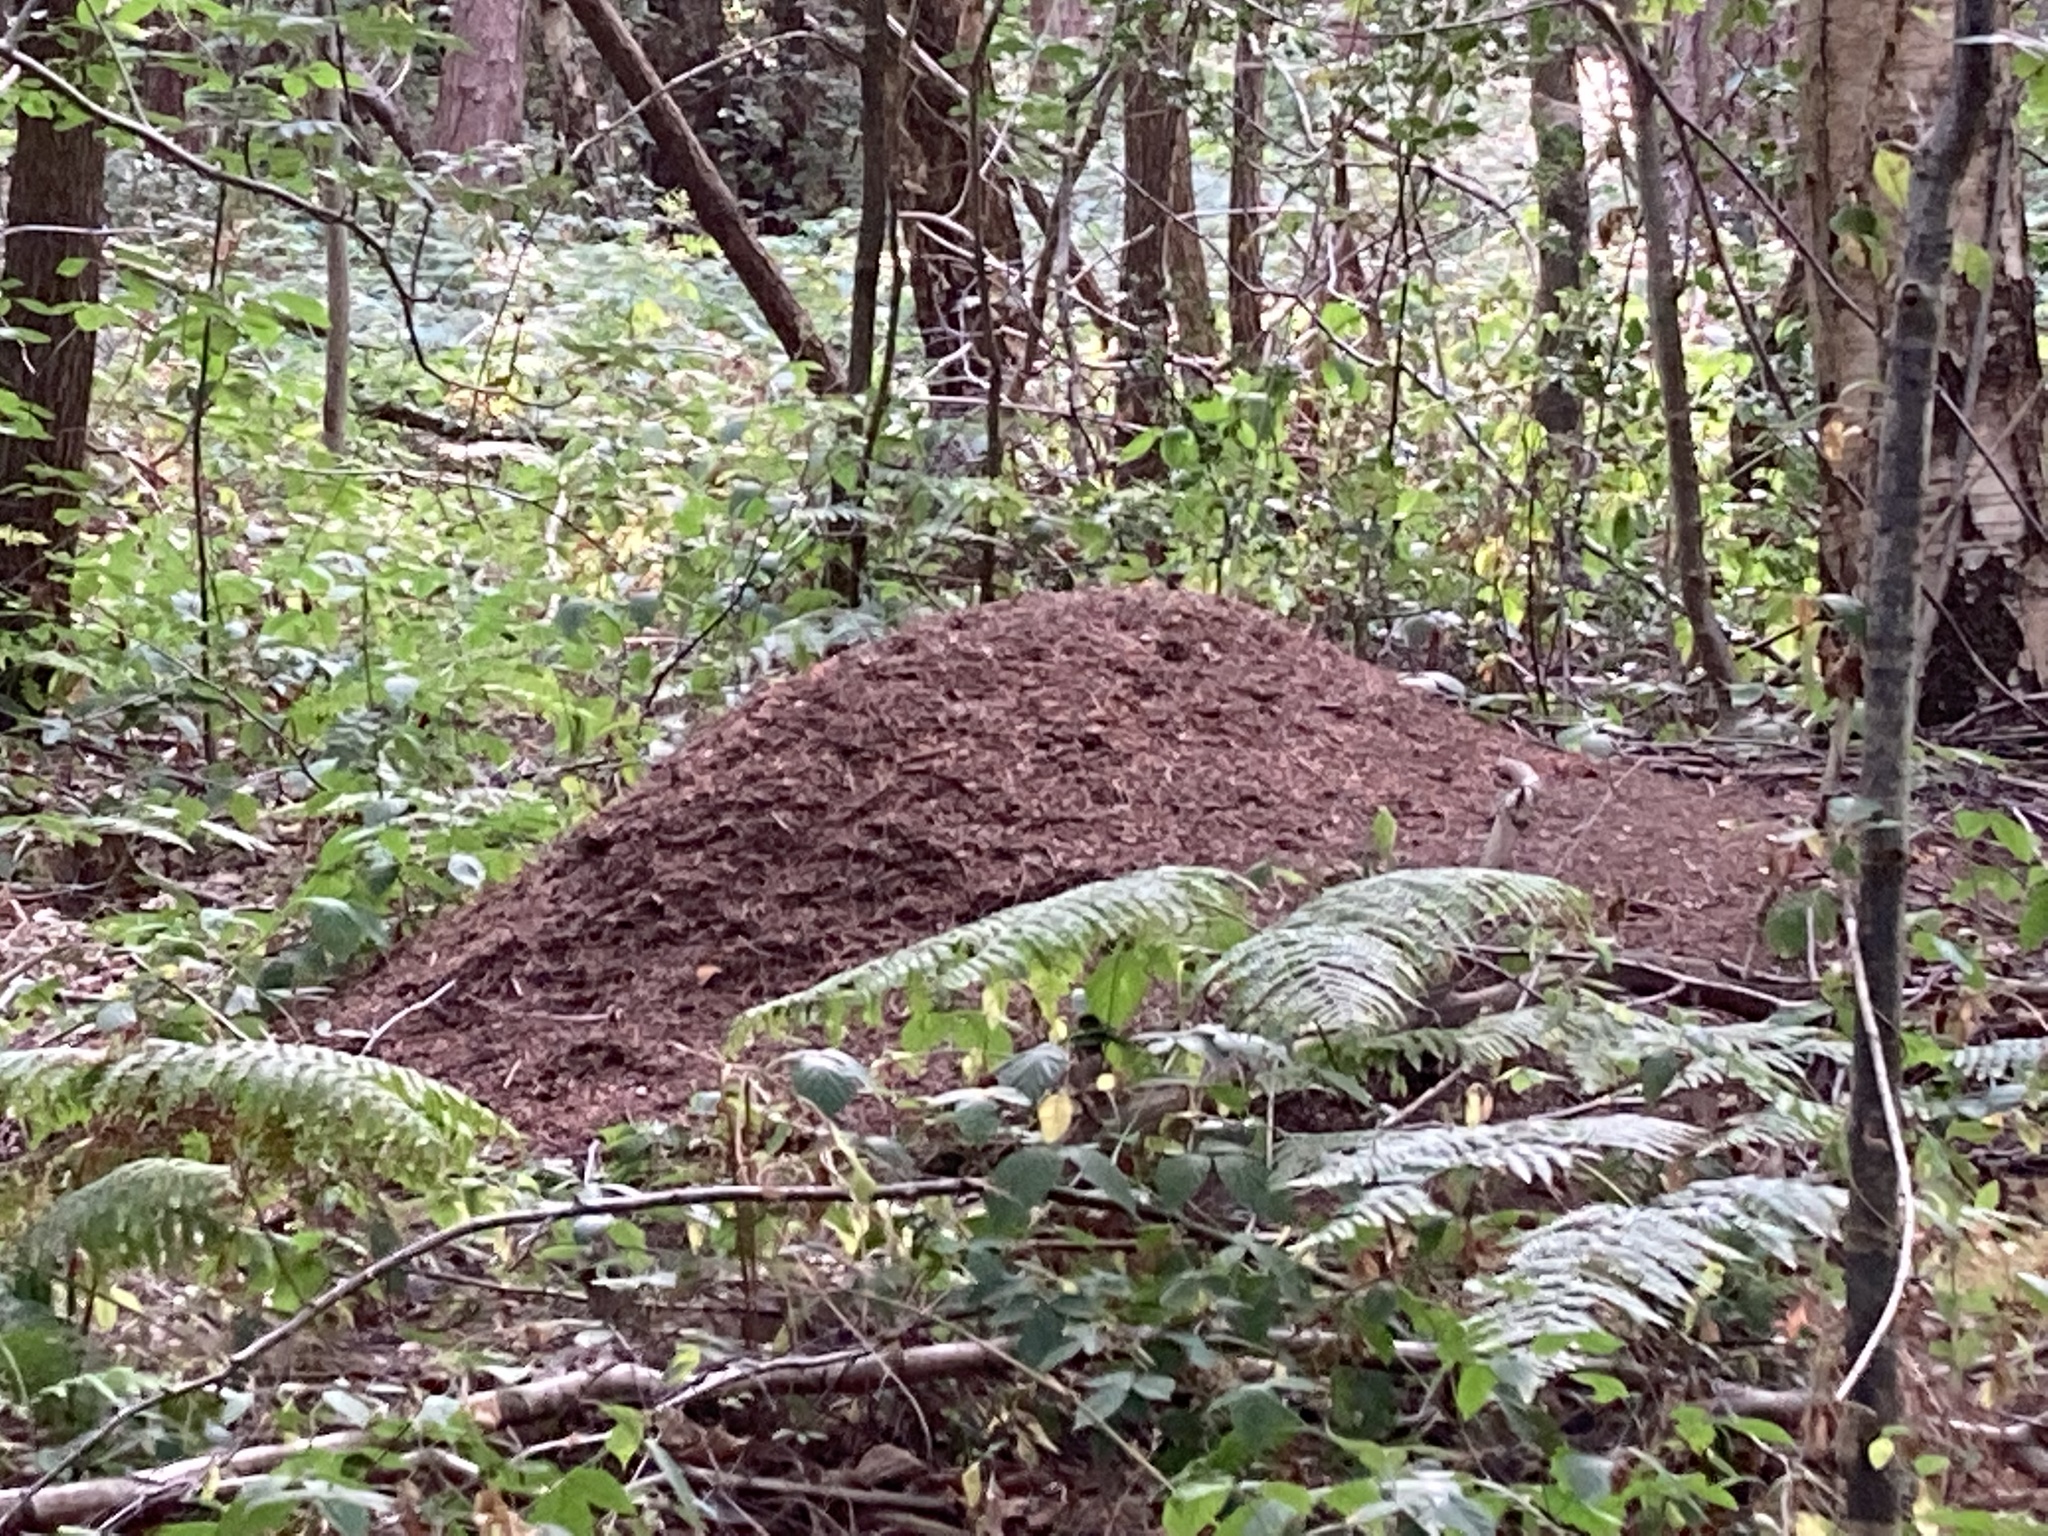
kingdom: Animalia
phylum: Arthropoda
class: Insecta
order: Hymenoptera
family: Formicidae
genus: Formica
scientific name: Formica
